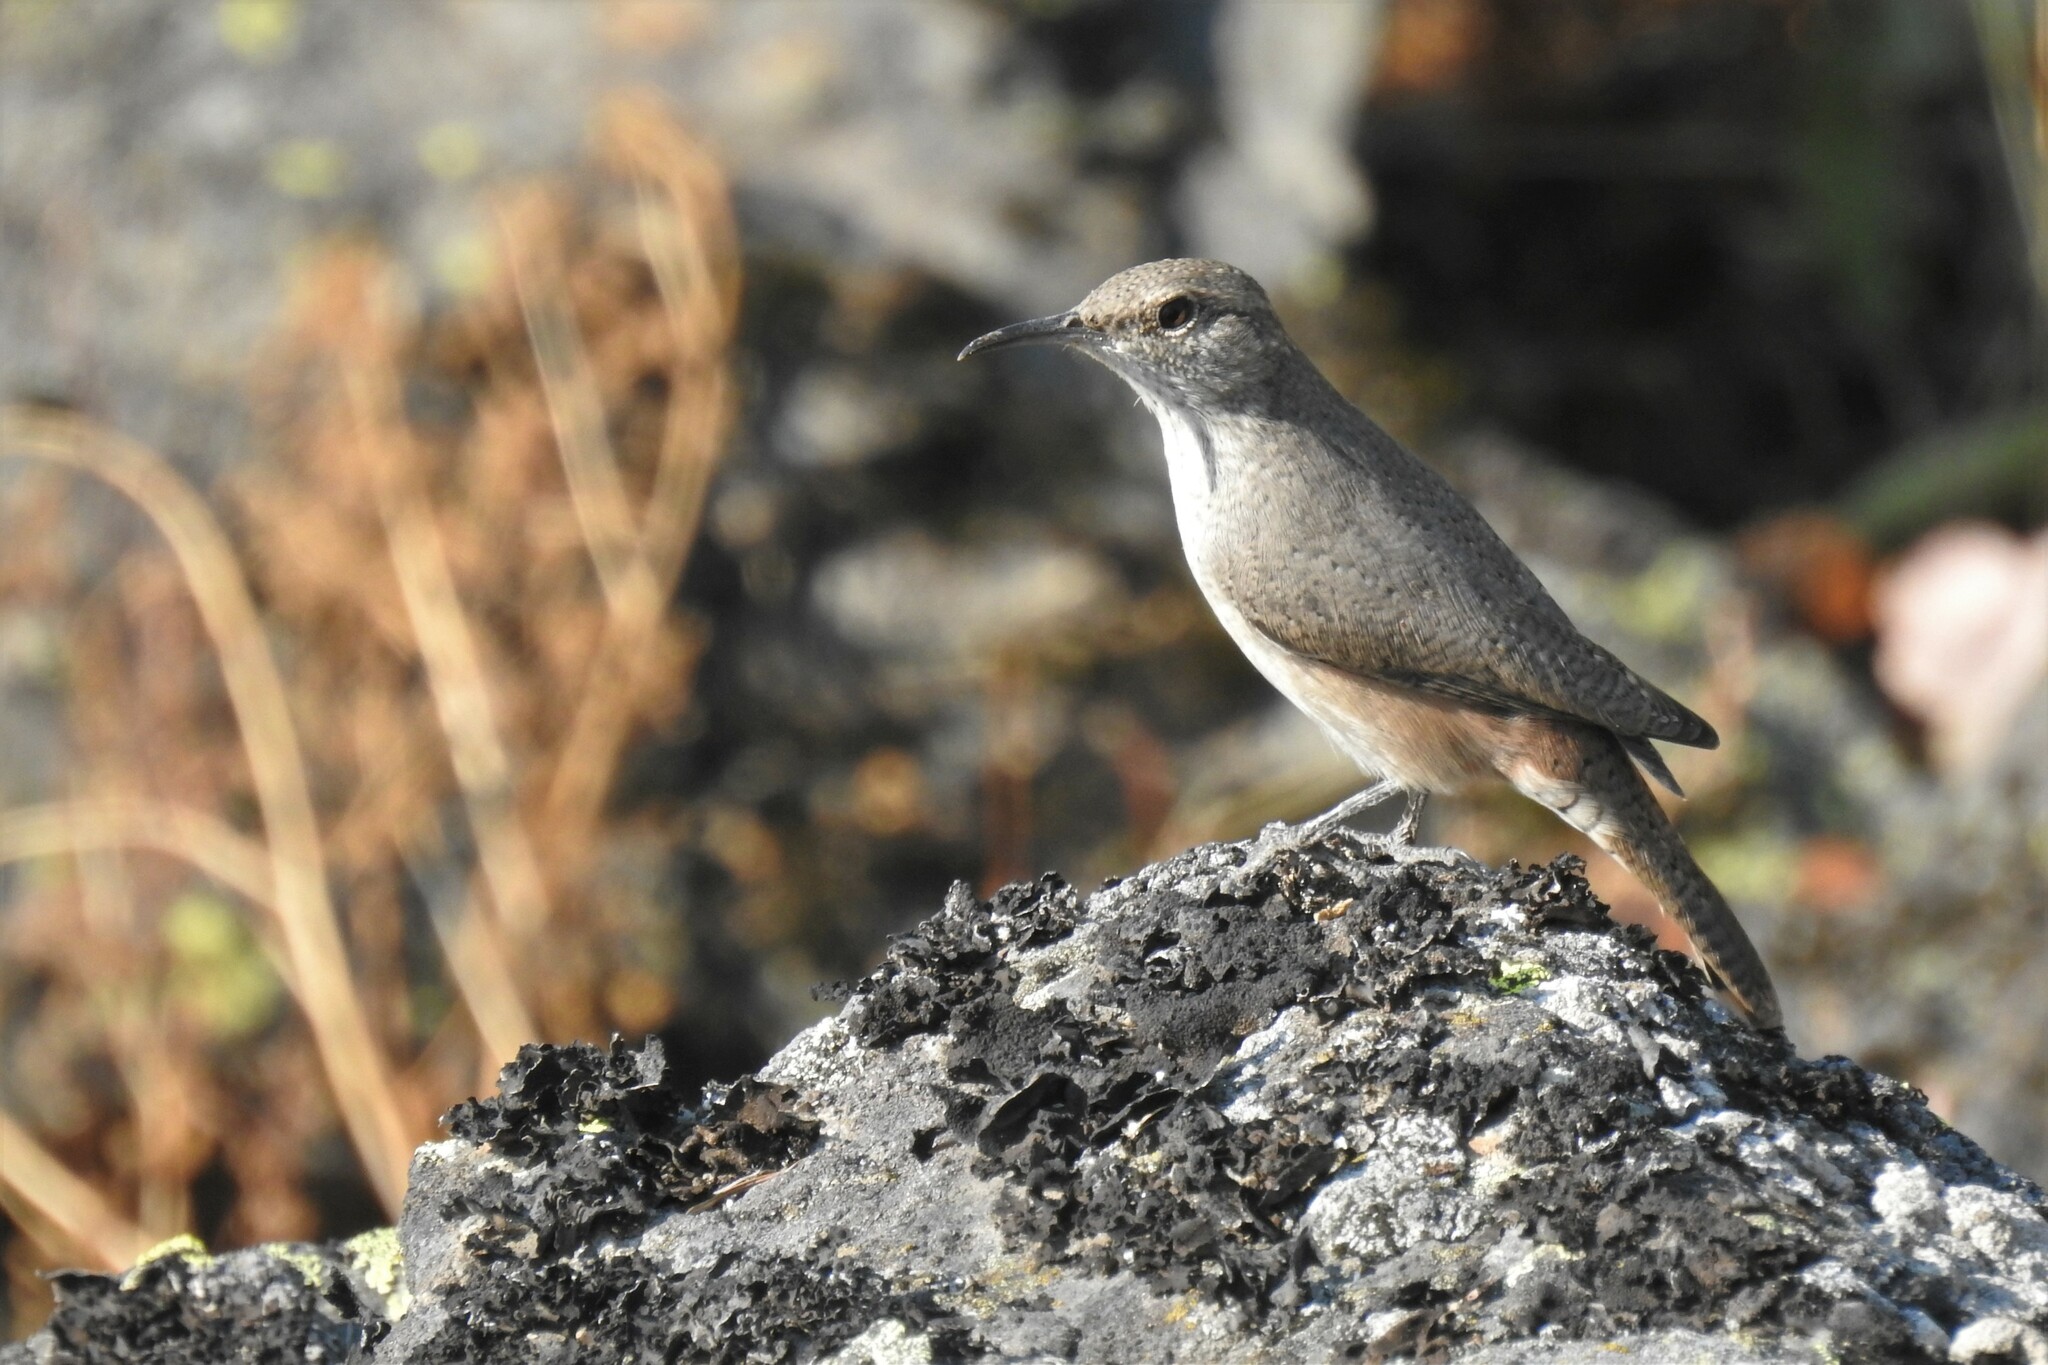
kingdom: Animalia
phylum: Chordata
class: Aves
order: Passeriformes
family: Troglodytidae
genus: Salpinctes
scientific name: Salpinctes obsoletus
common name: Rock wren
